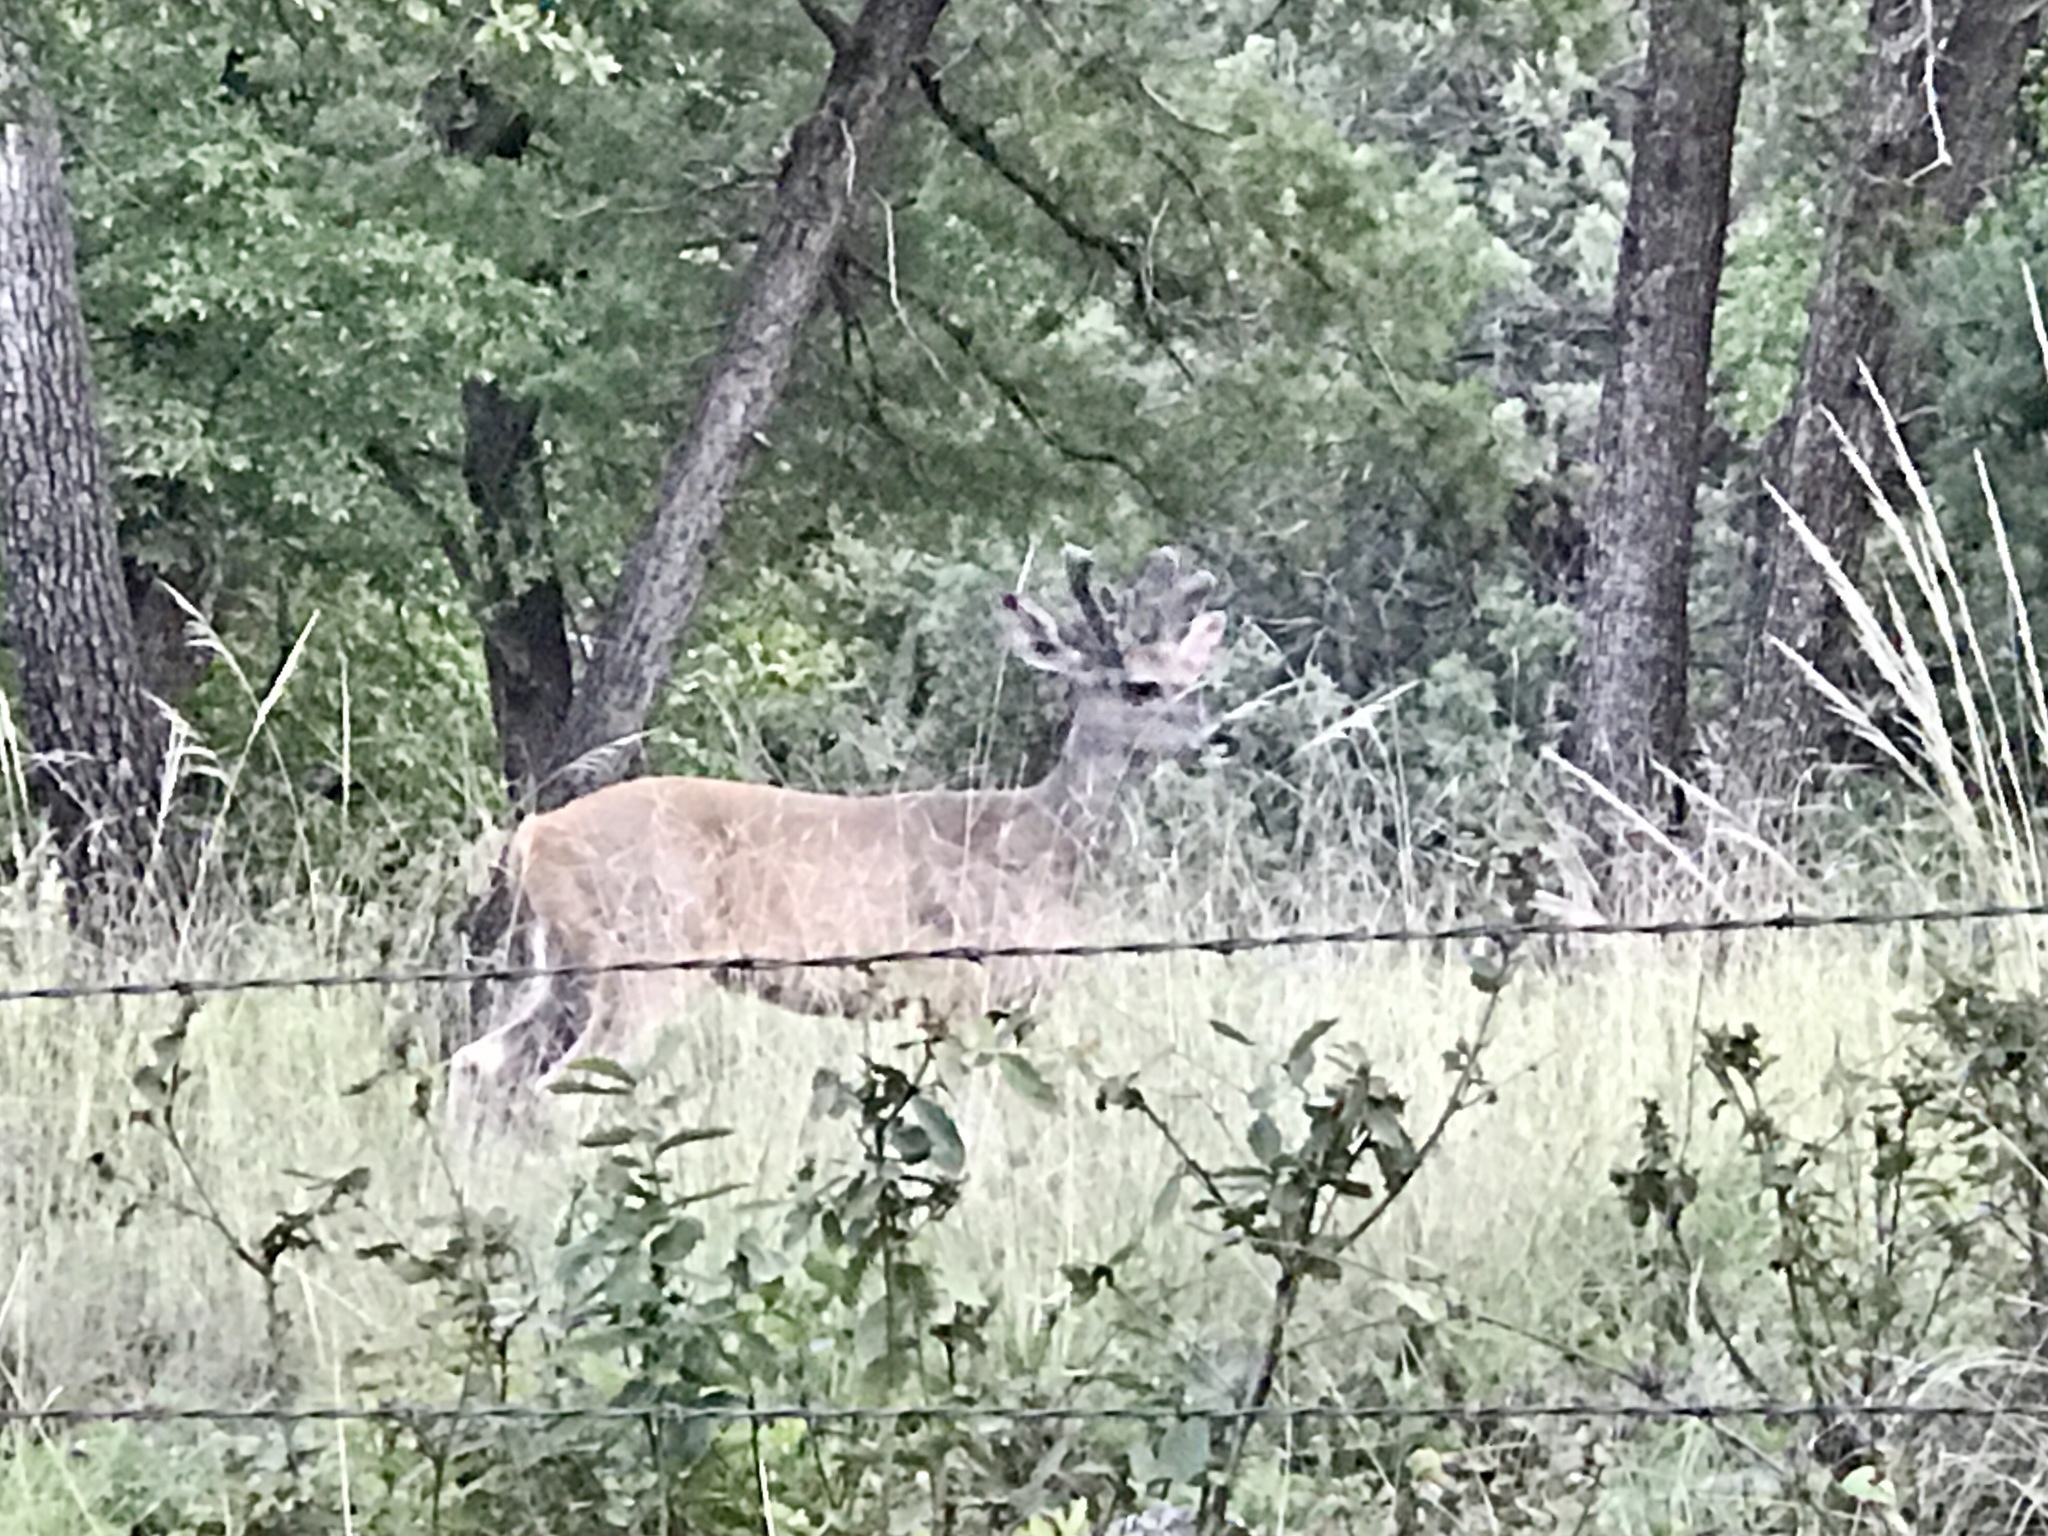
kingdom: Animalia
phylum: Chordata
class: Mammalia
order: Artiodactyla
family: Cervidae
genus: Odocoileus
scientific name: Odocoileus virginianus
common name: White-tailed deer
